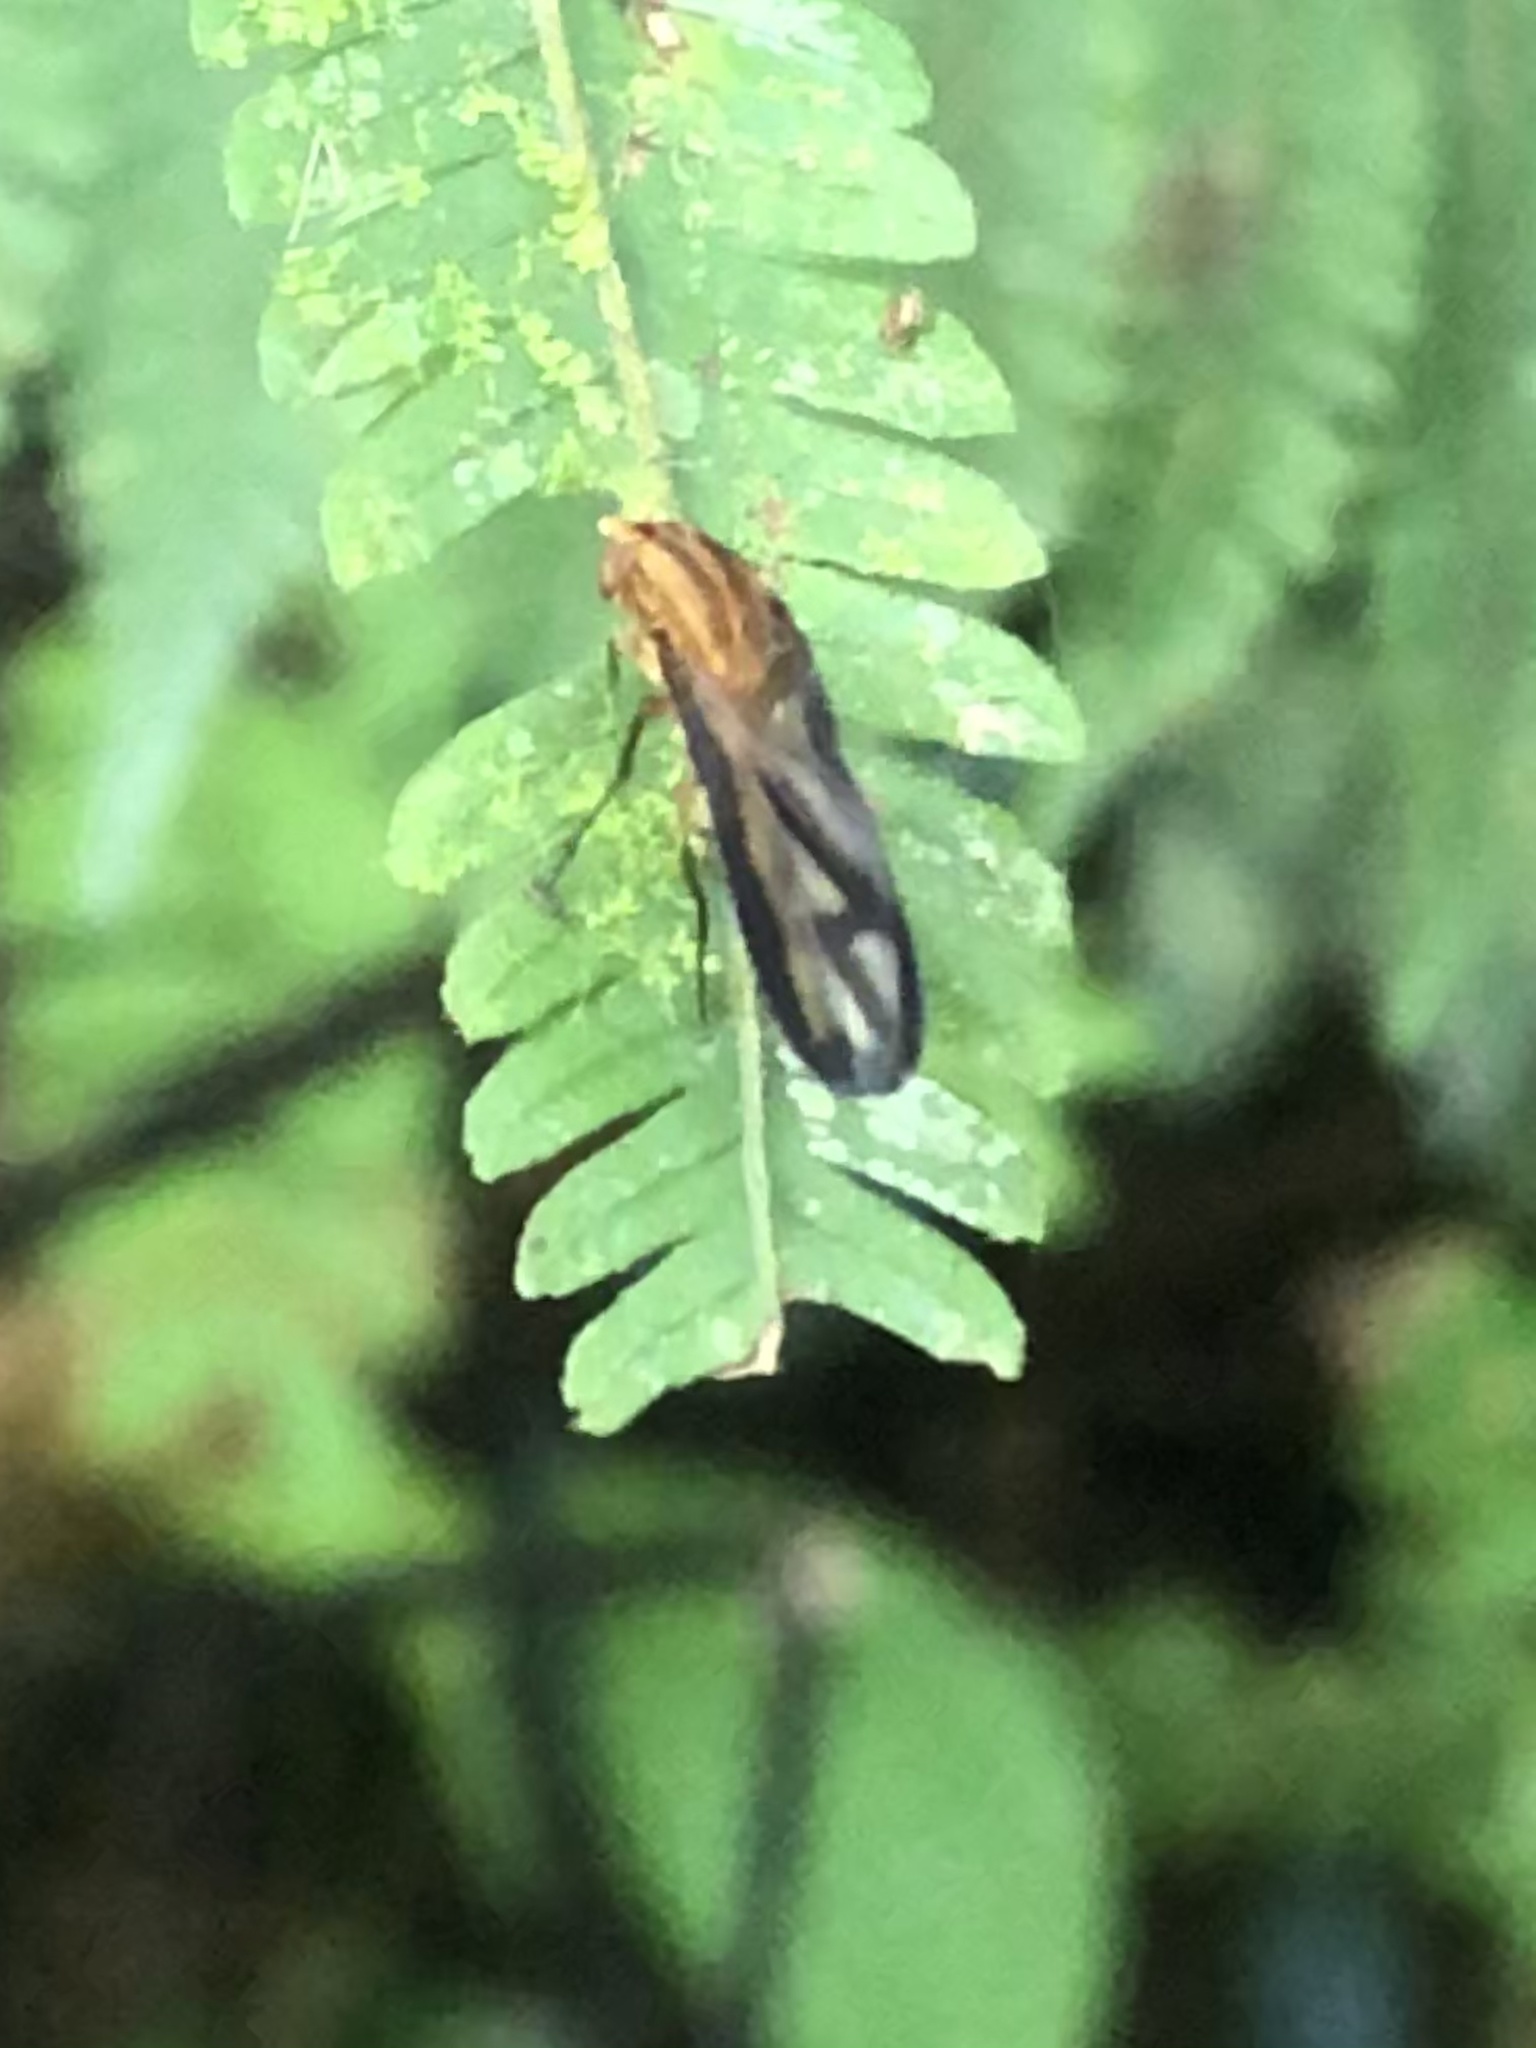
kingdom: Animalia
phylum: Arthropoda
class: Insecta
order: Diptera
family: Curtonotidae
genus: Curtonotum
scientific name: Curtonotum bathmedum
